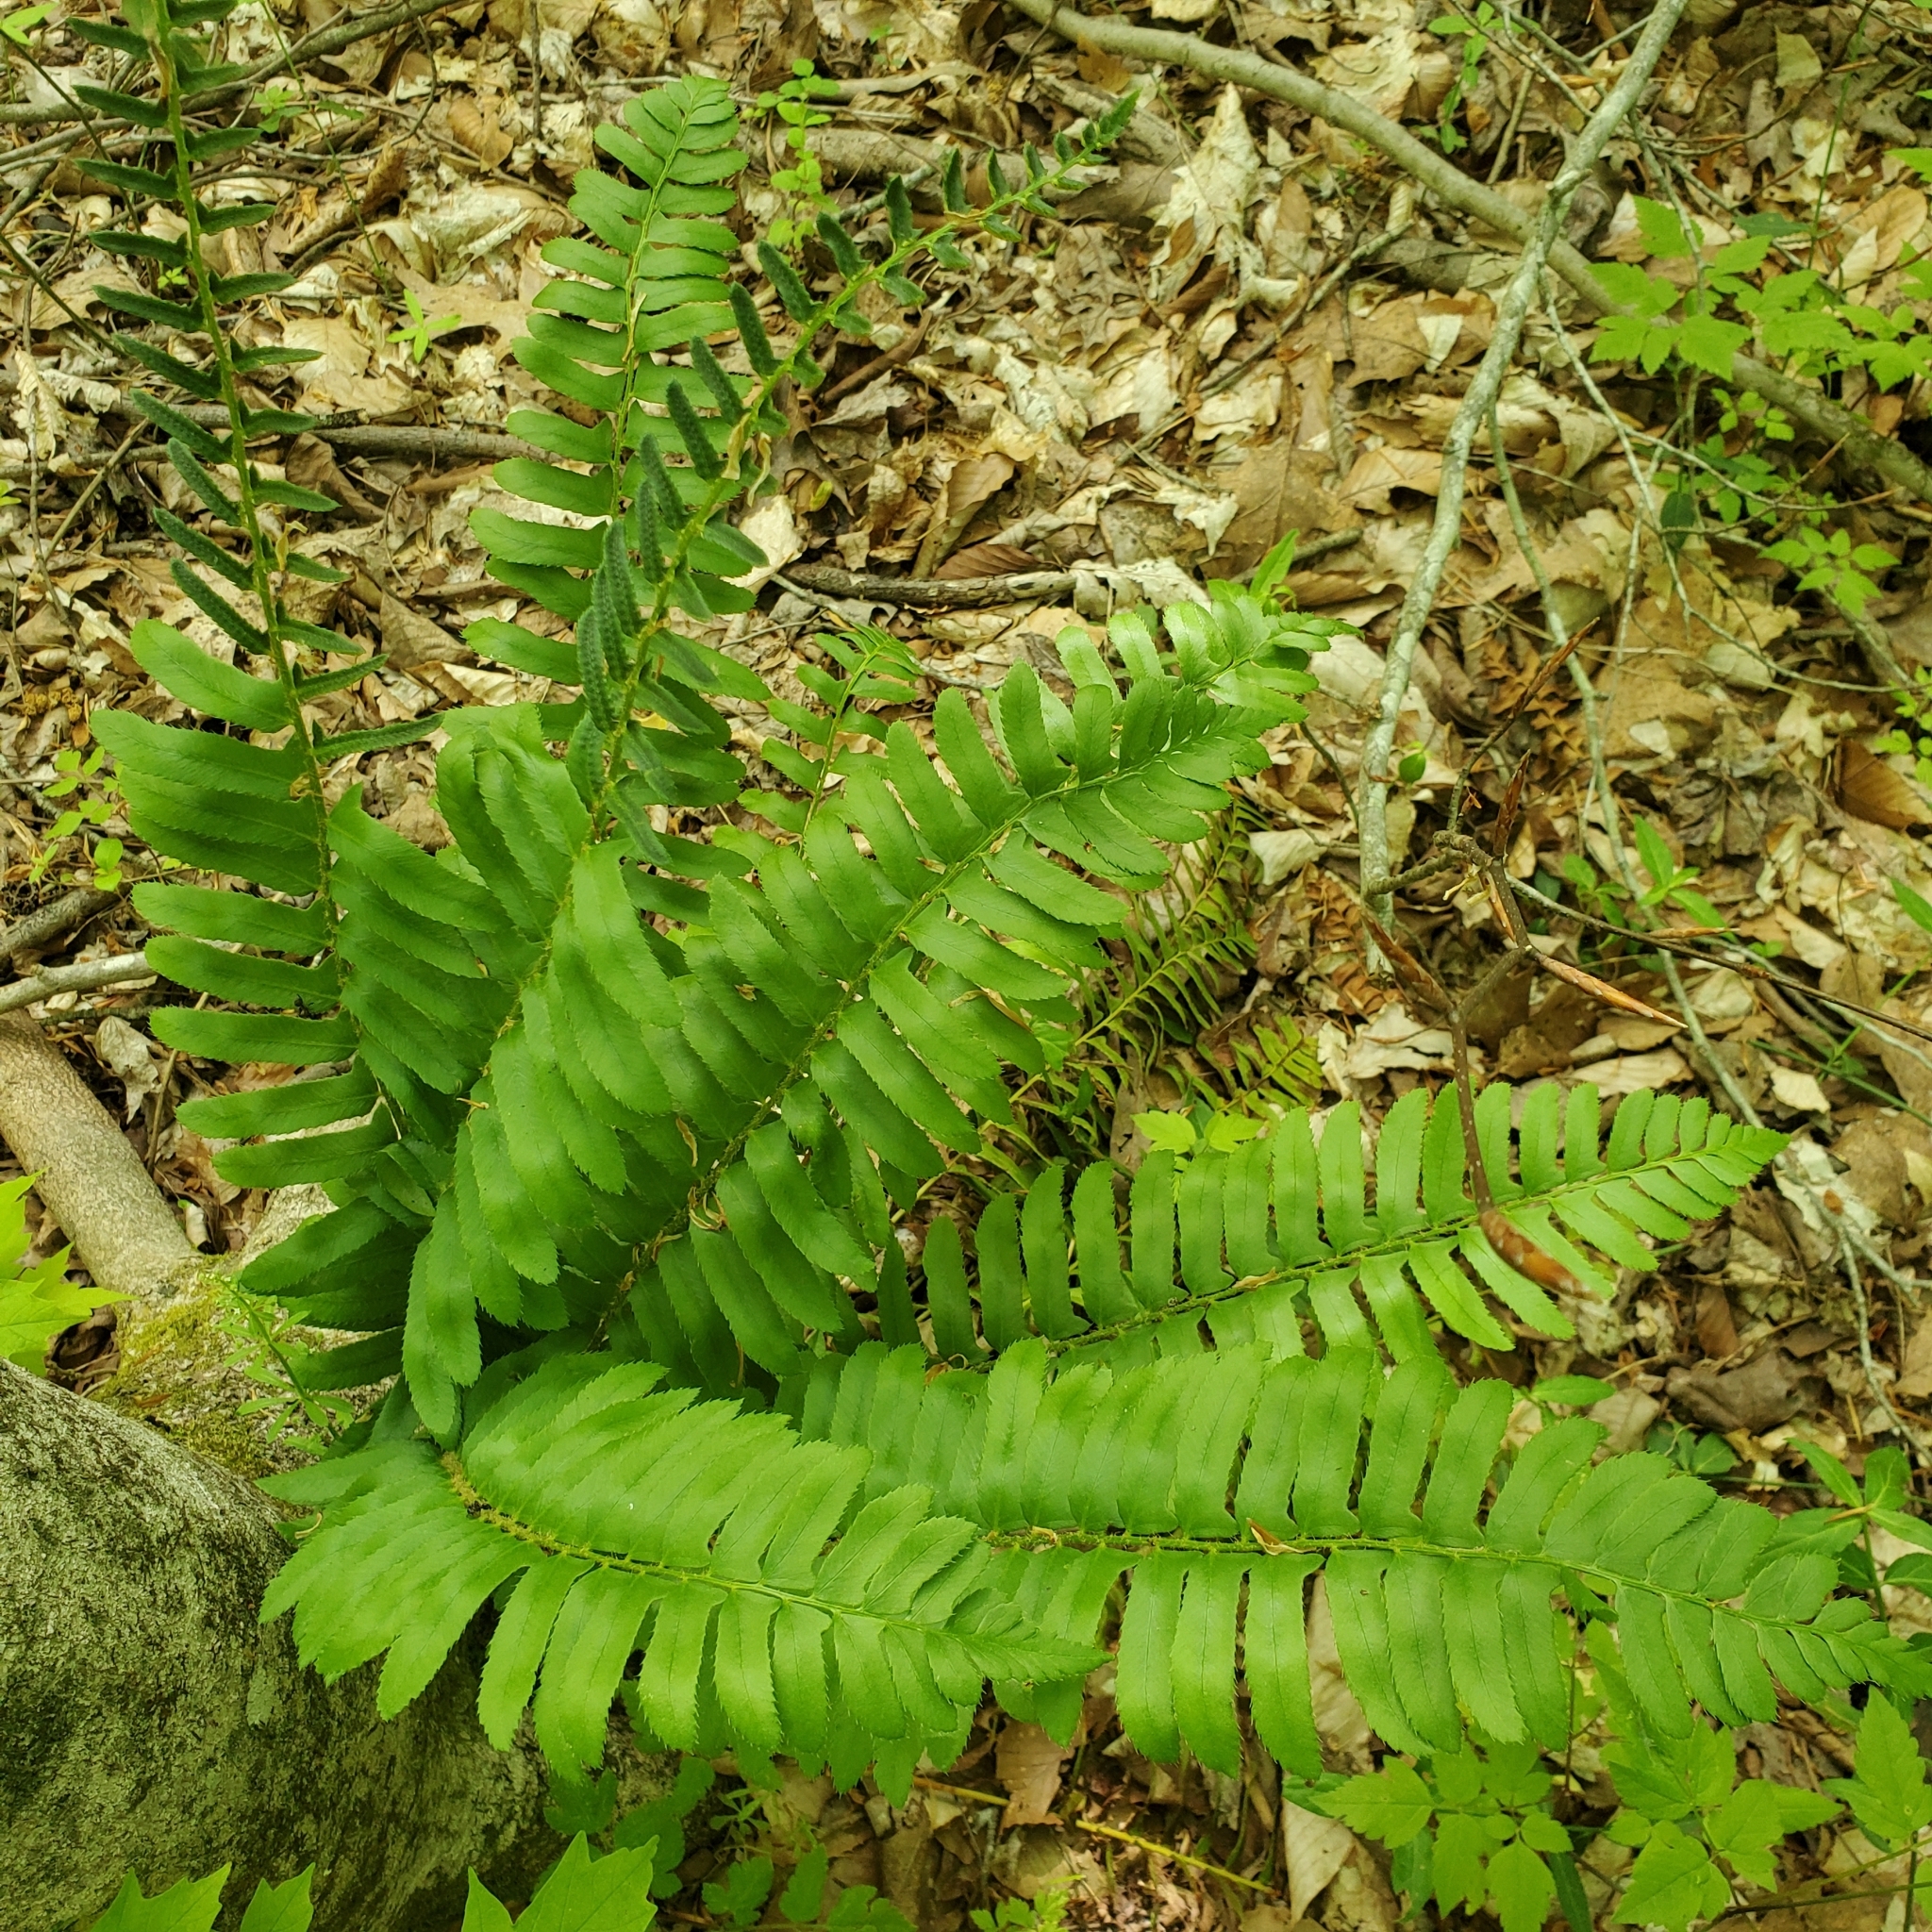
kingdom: Plantae
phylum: Tracheophyta
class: Polypodiopsida
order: Polypodiales
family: Dryopteridaceae
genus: Polystichum
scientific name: Polystichum acrostichoides
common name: Christmas fern
